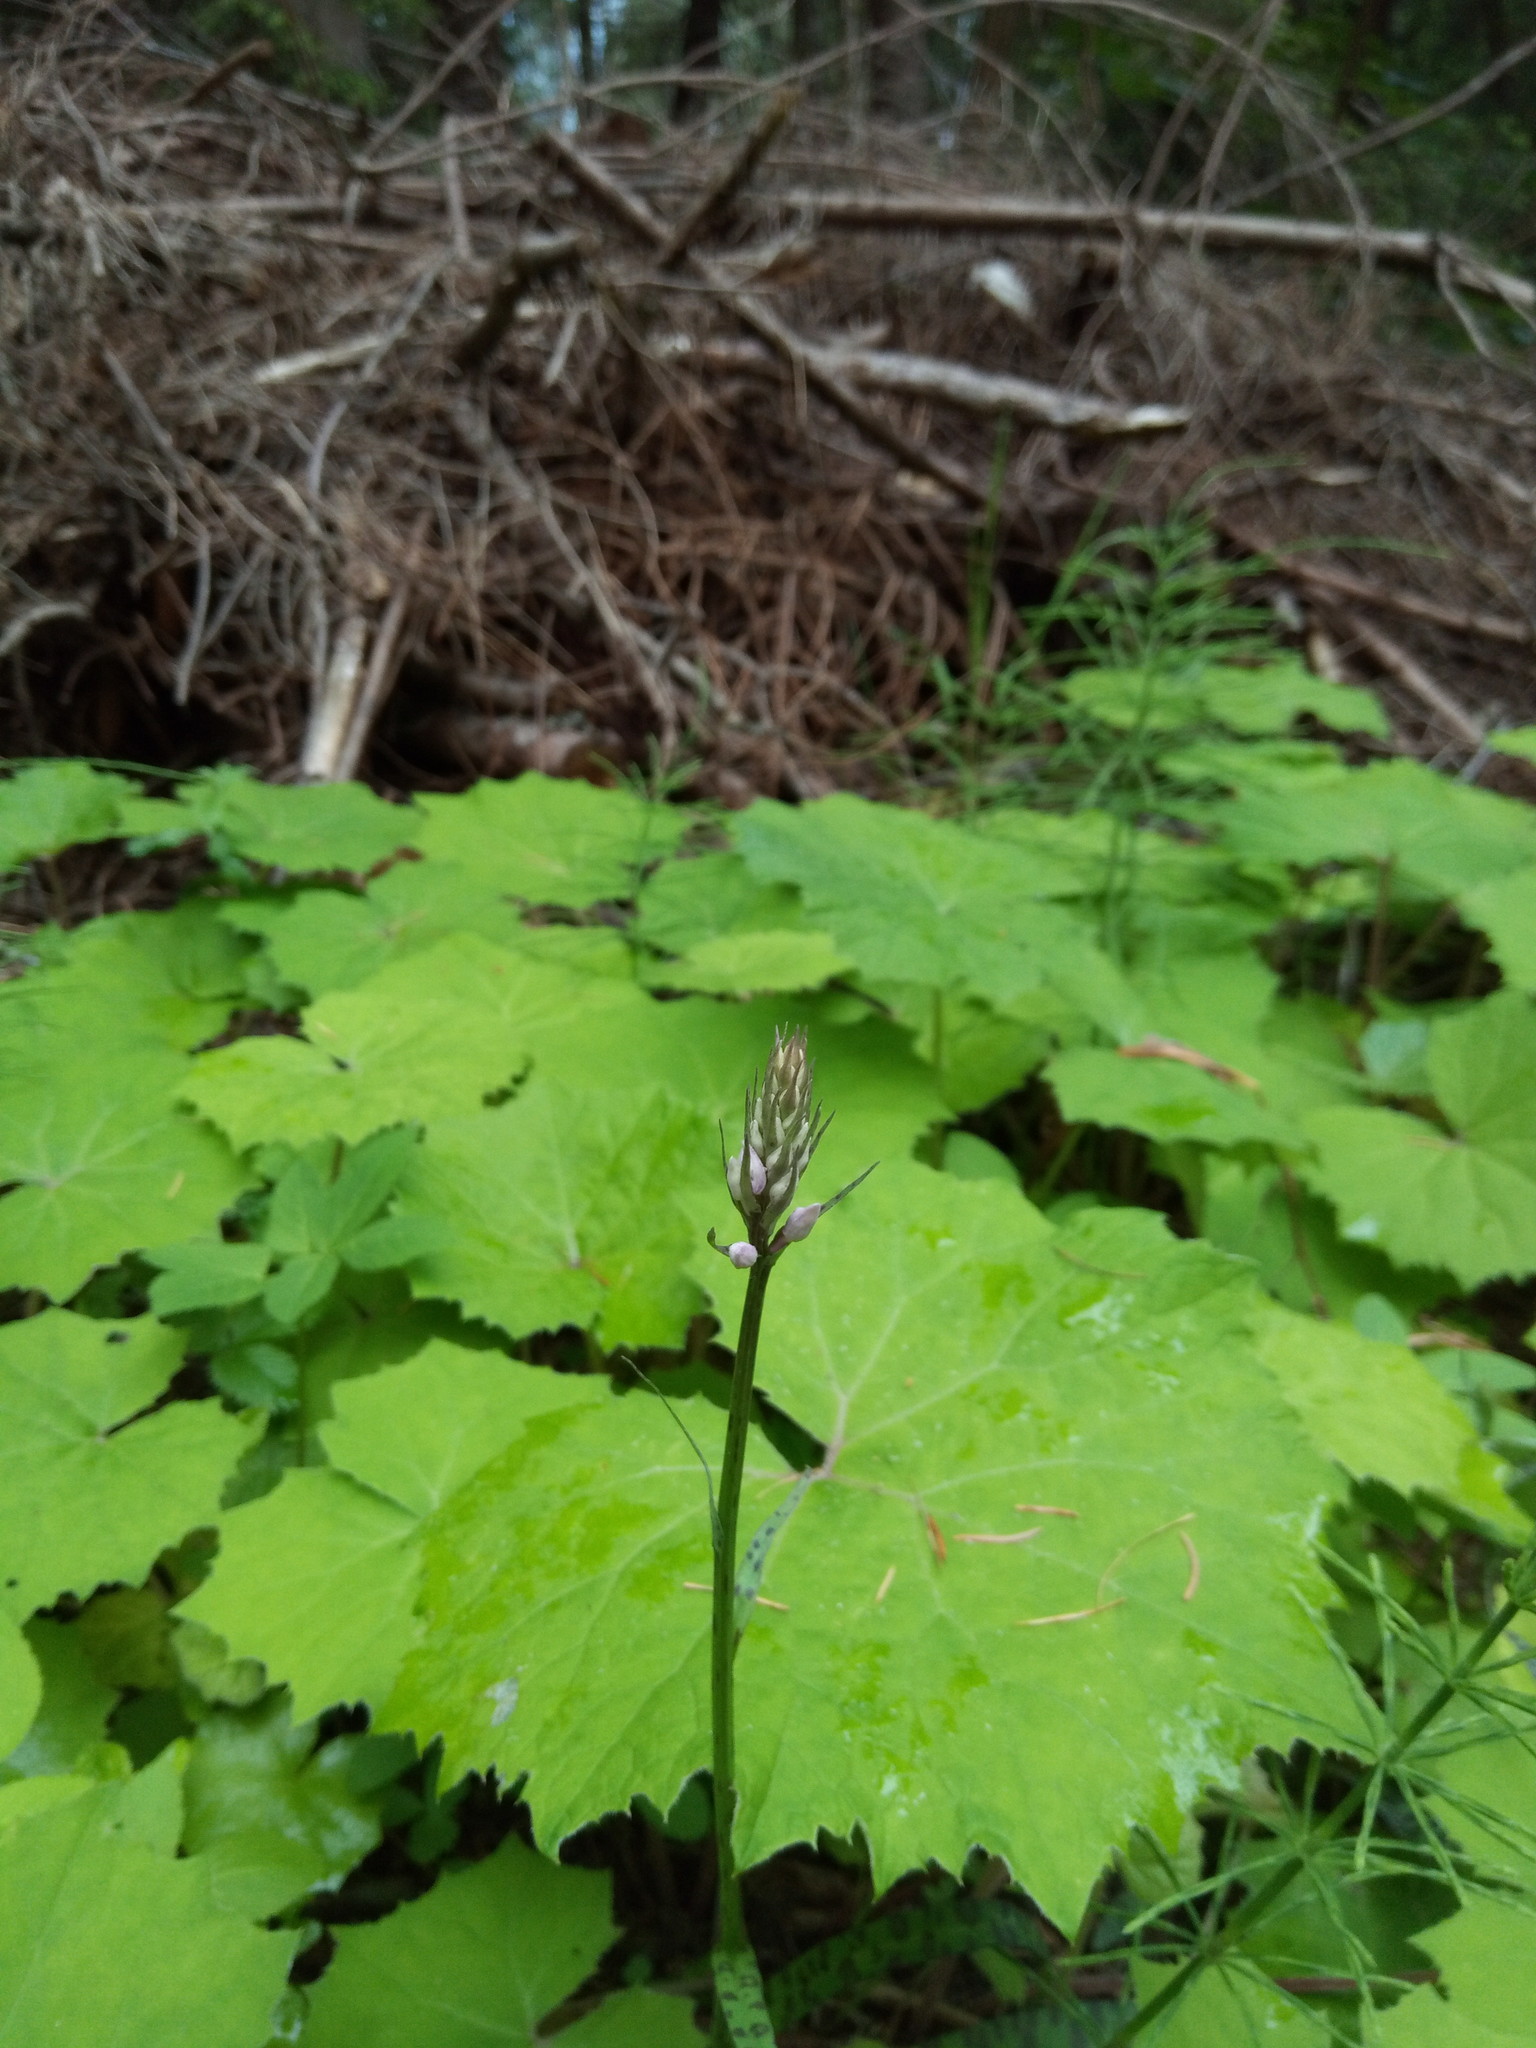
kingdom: Plantae
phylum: Tracheophyta
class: Liliopsida
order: Asparagales
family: Orchidaceae
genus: Dactylorhiza
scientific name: Dactylorhiza maculata
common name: Heath spotted-orchid
